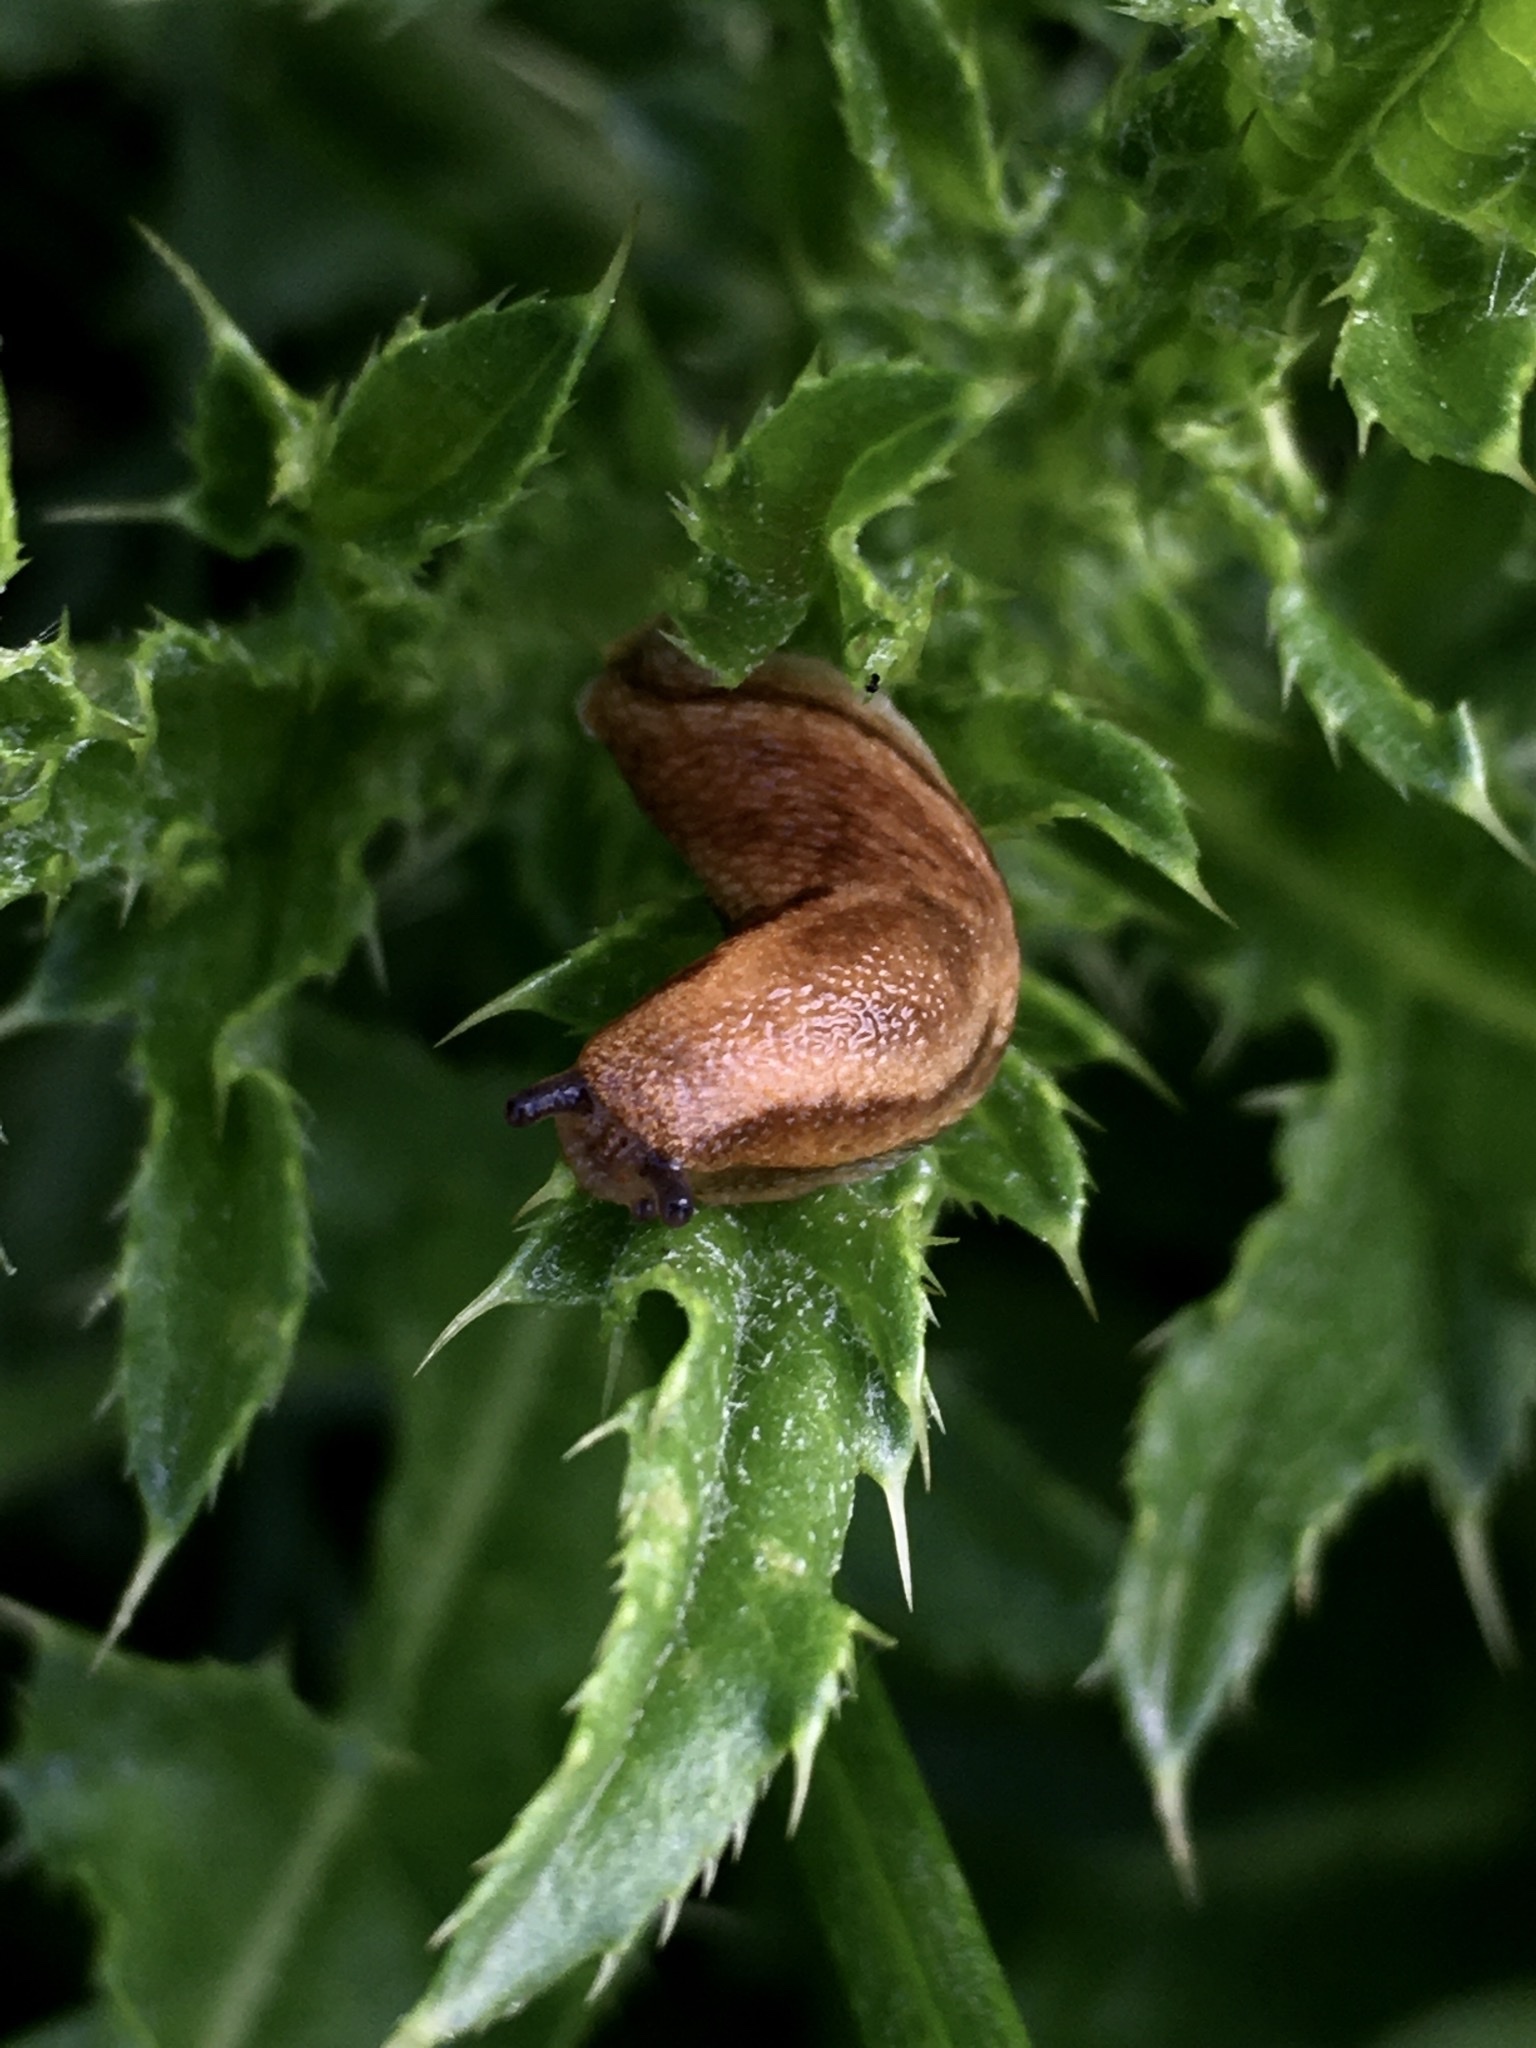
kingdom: Animalia
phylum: Mollusca
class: Gastropoda
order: Stylommatophora
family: Arionidae
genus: Arion
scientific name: Arion fuscus
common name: Northern dusky slug
